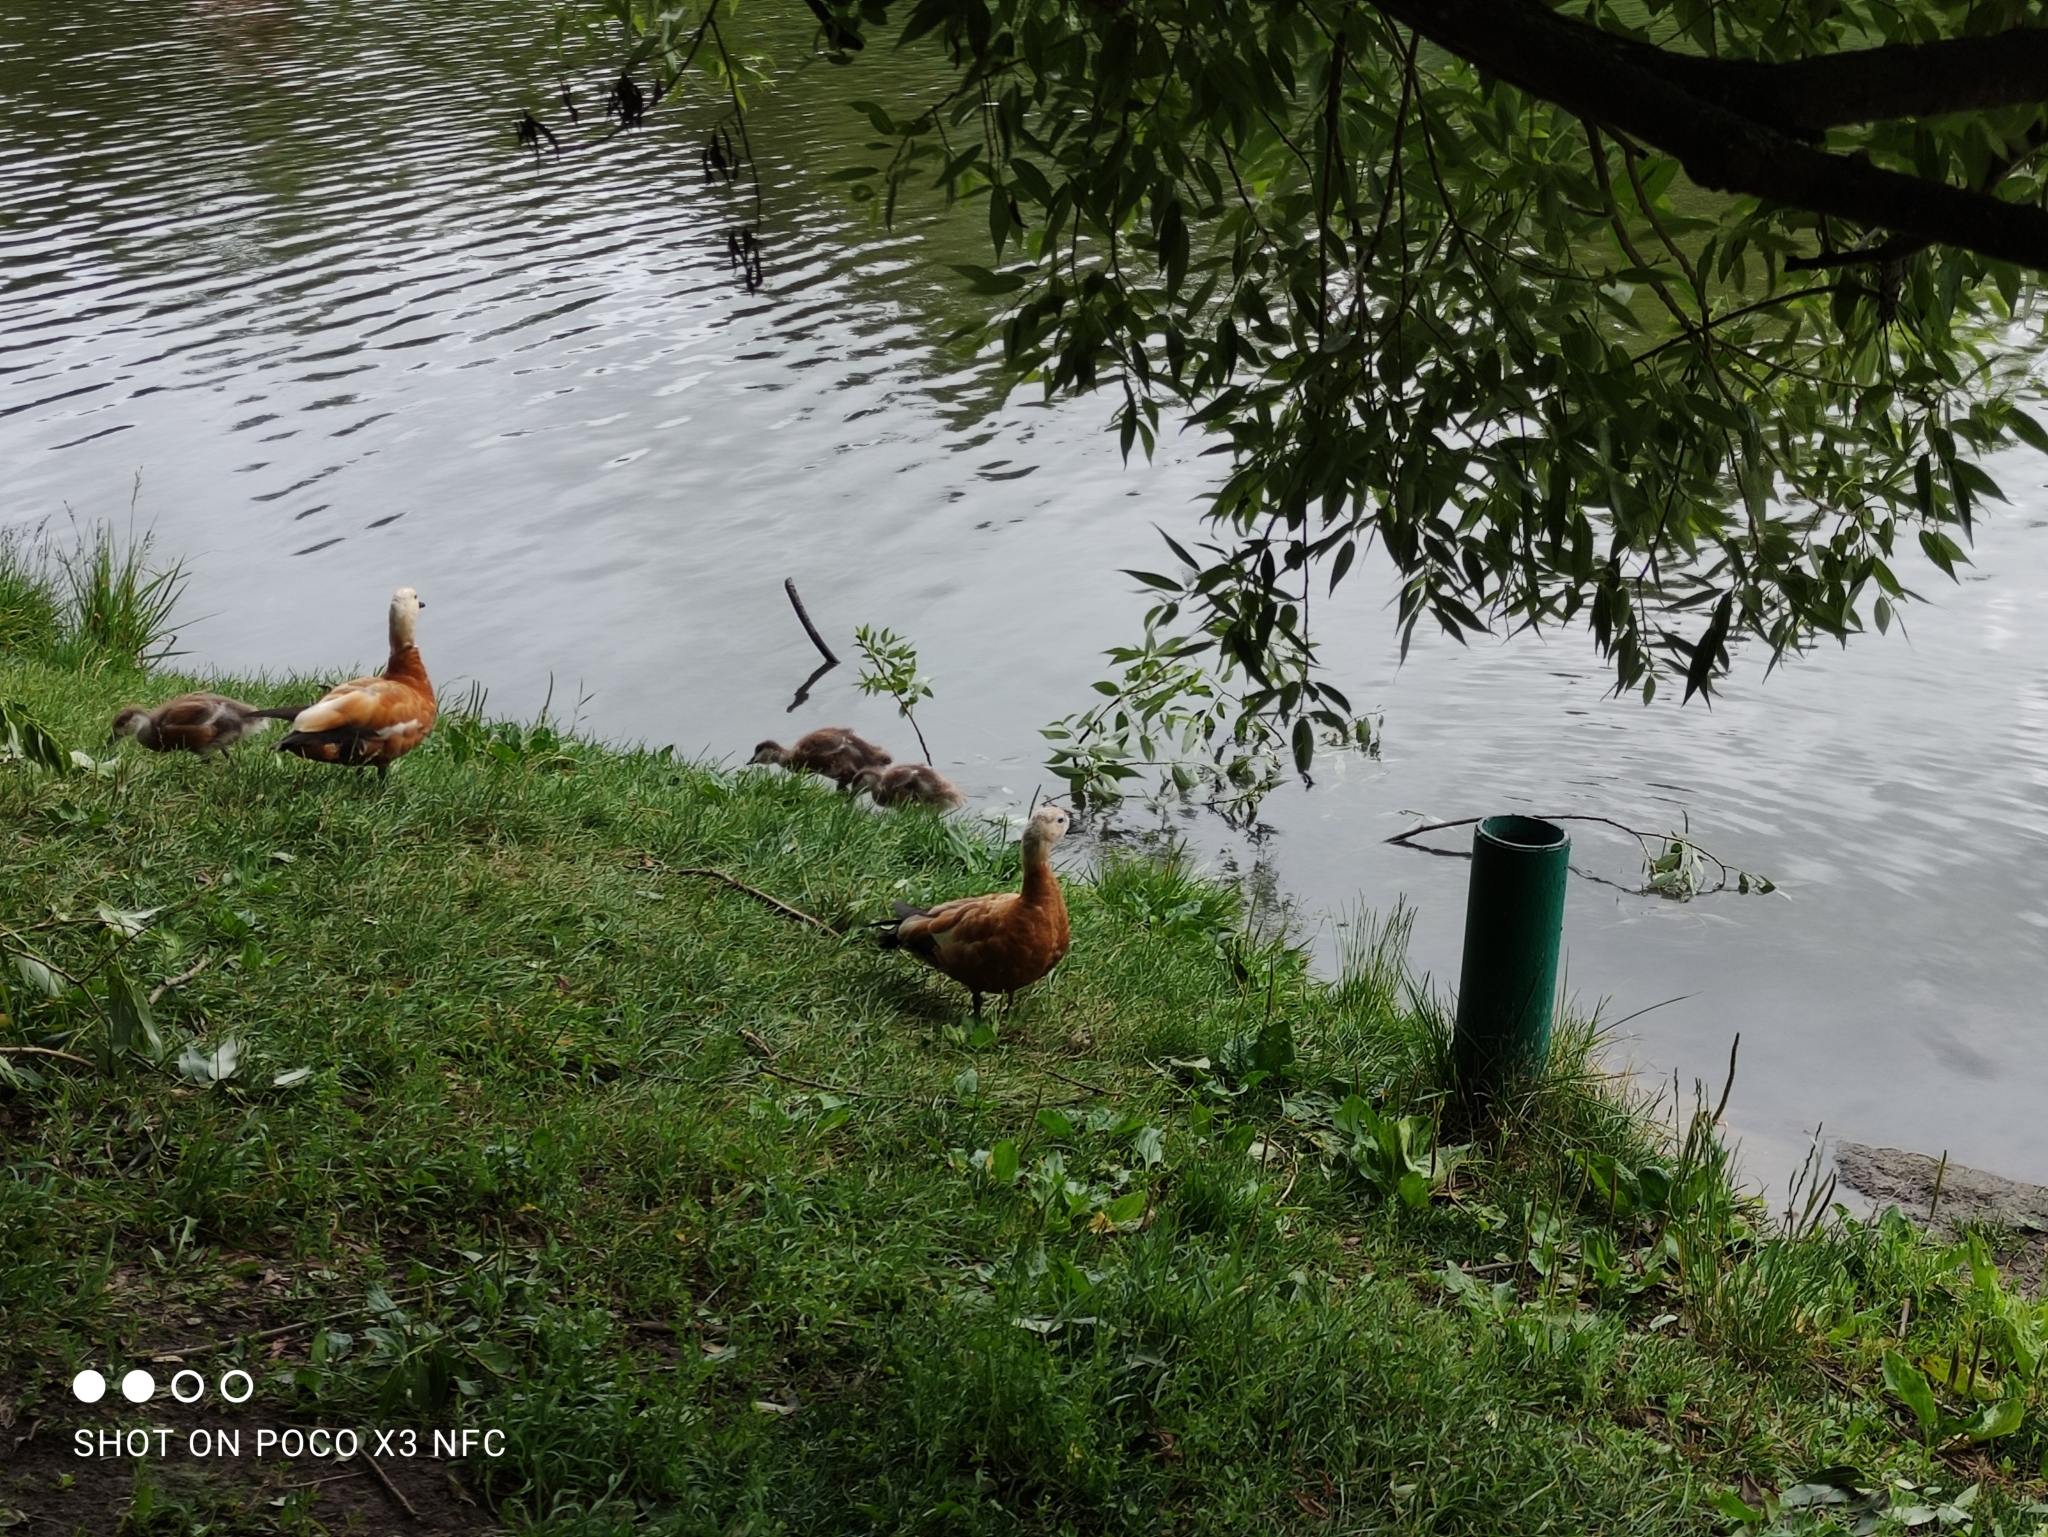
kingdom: Animalia
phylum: Chordata
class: Aves
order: Anseriformes
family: Anatidae
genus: Tadorna
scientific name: Tadorna ferruginea
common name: Ruddy shelduck
